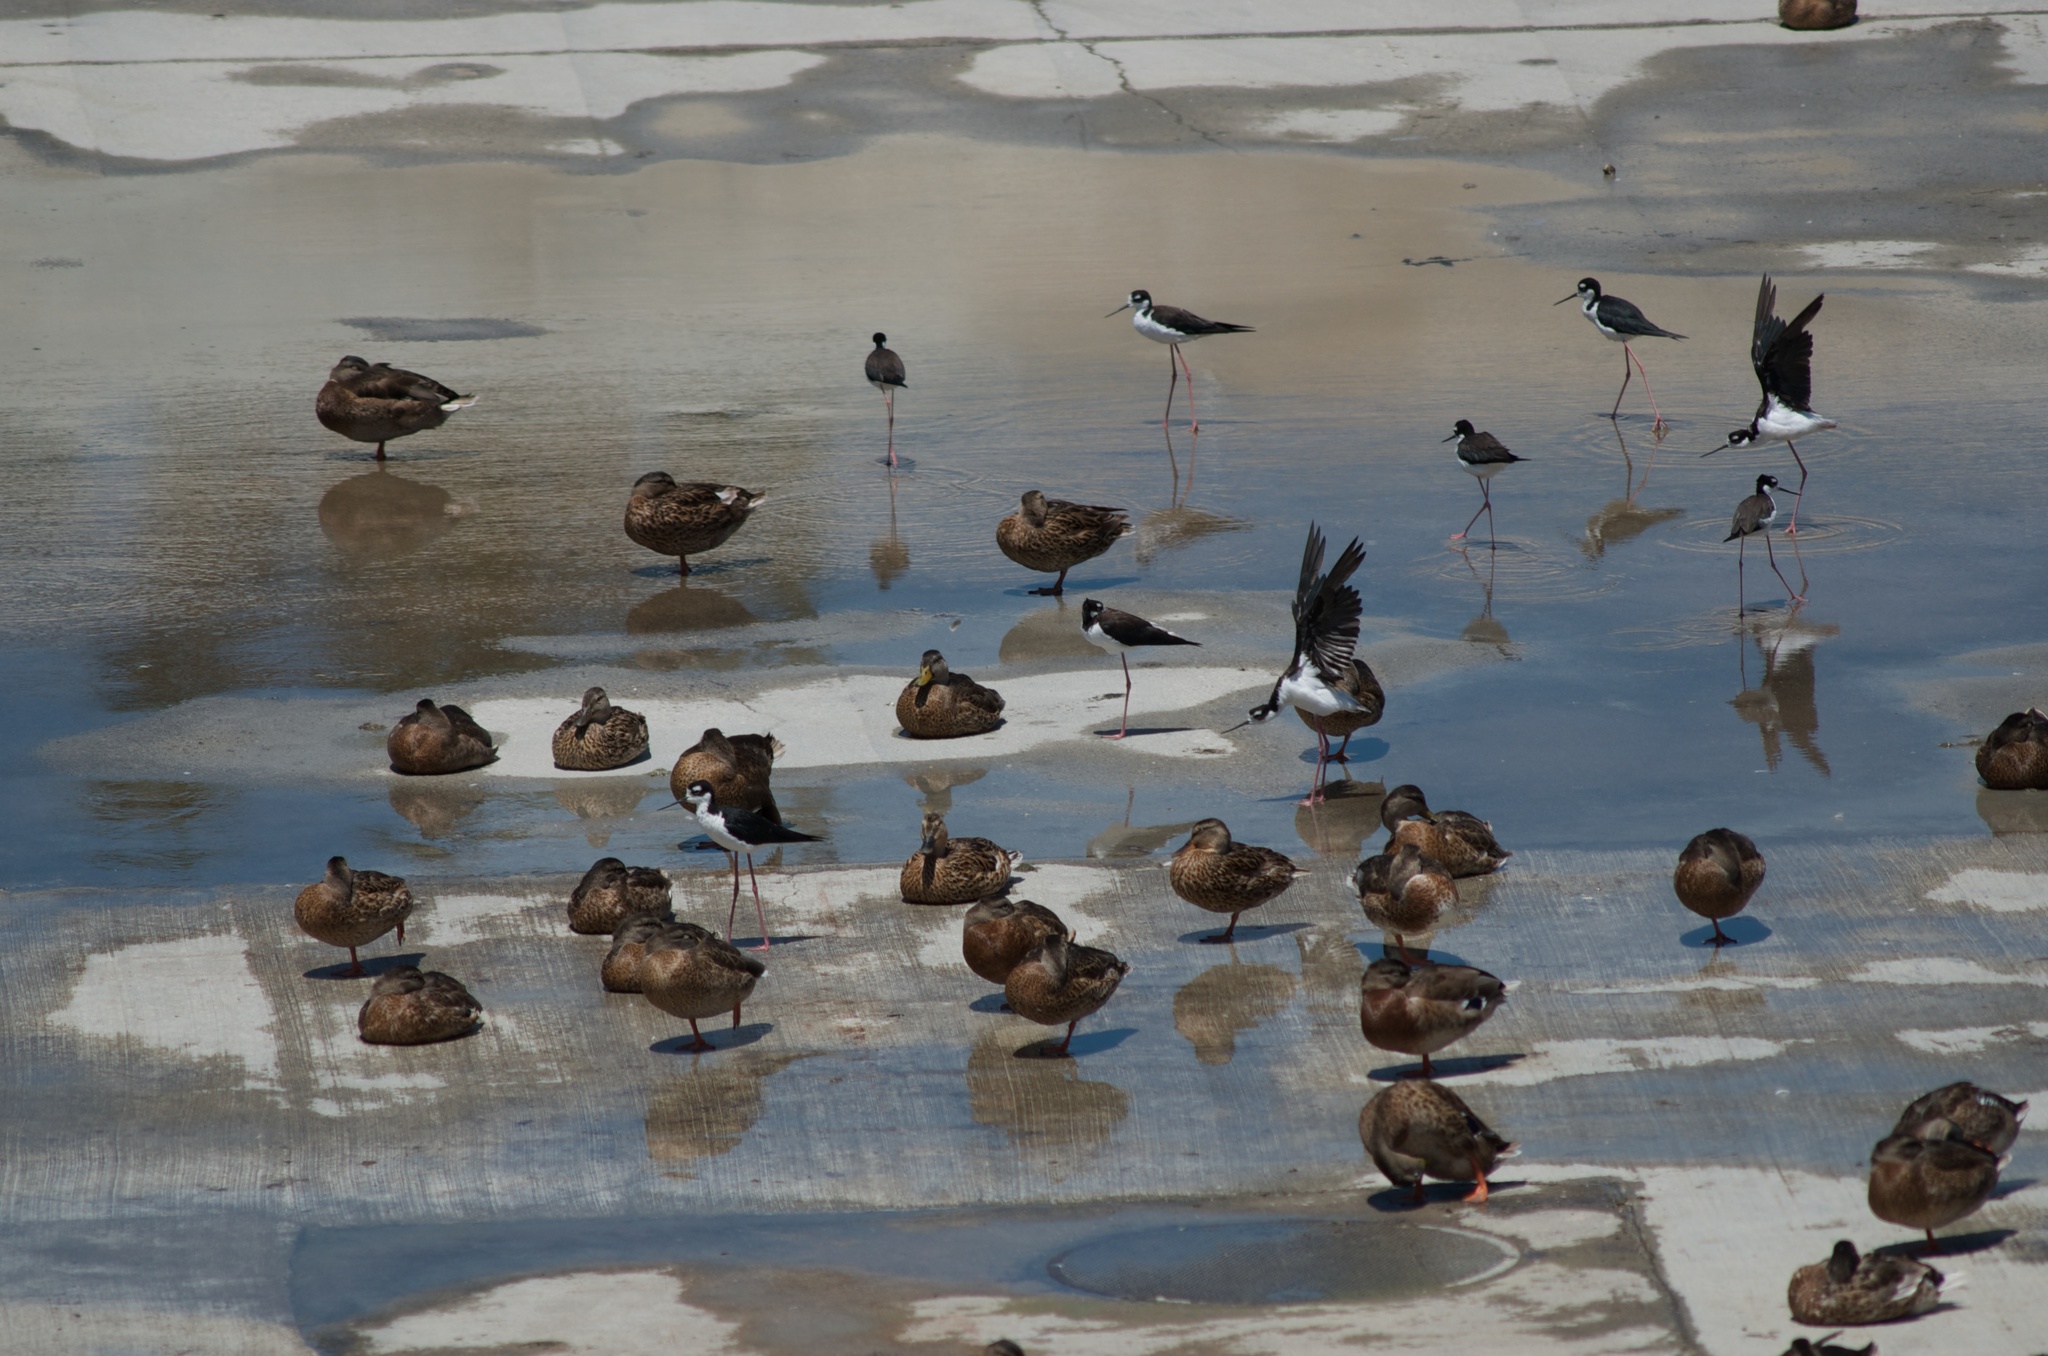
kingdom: Animalia
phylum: Chordata
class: Aves
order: Charadriiformes
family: Recurvirostridae
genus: Himantopus
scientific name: Himantopus mexicanus
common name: Black-necked stilt
